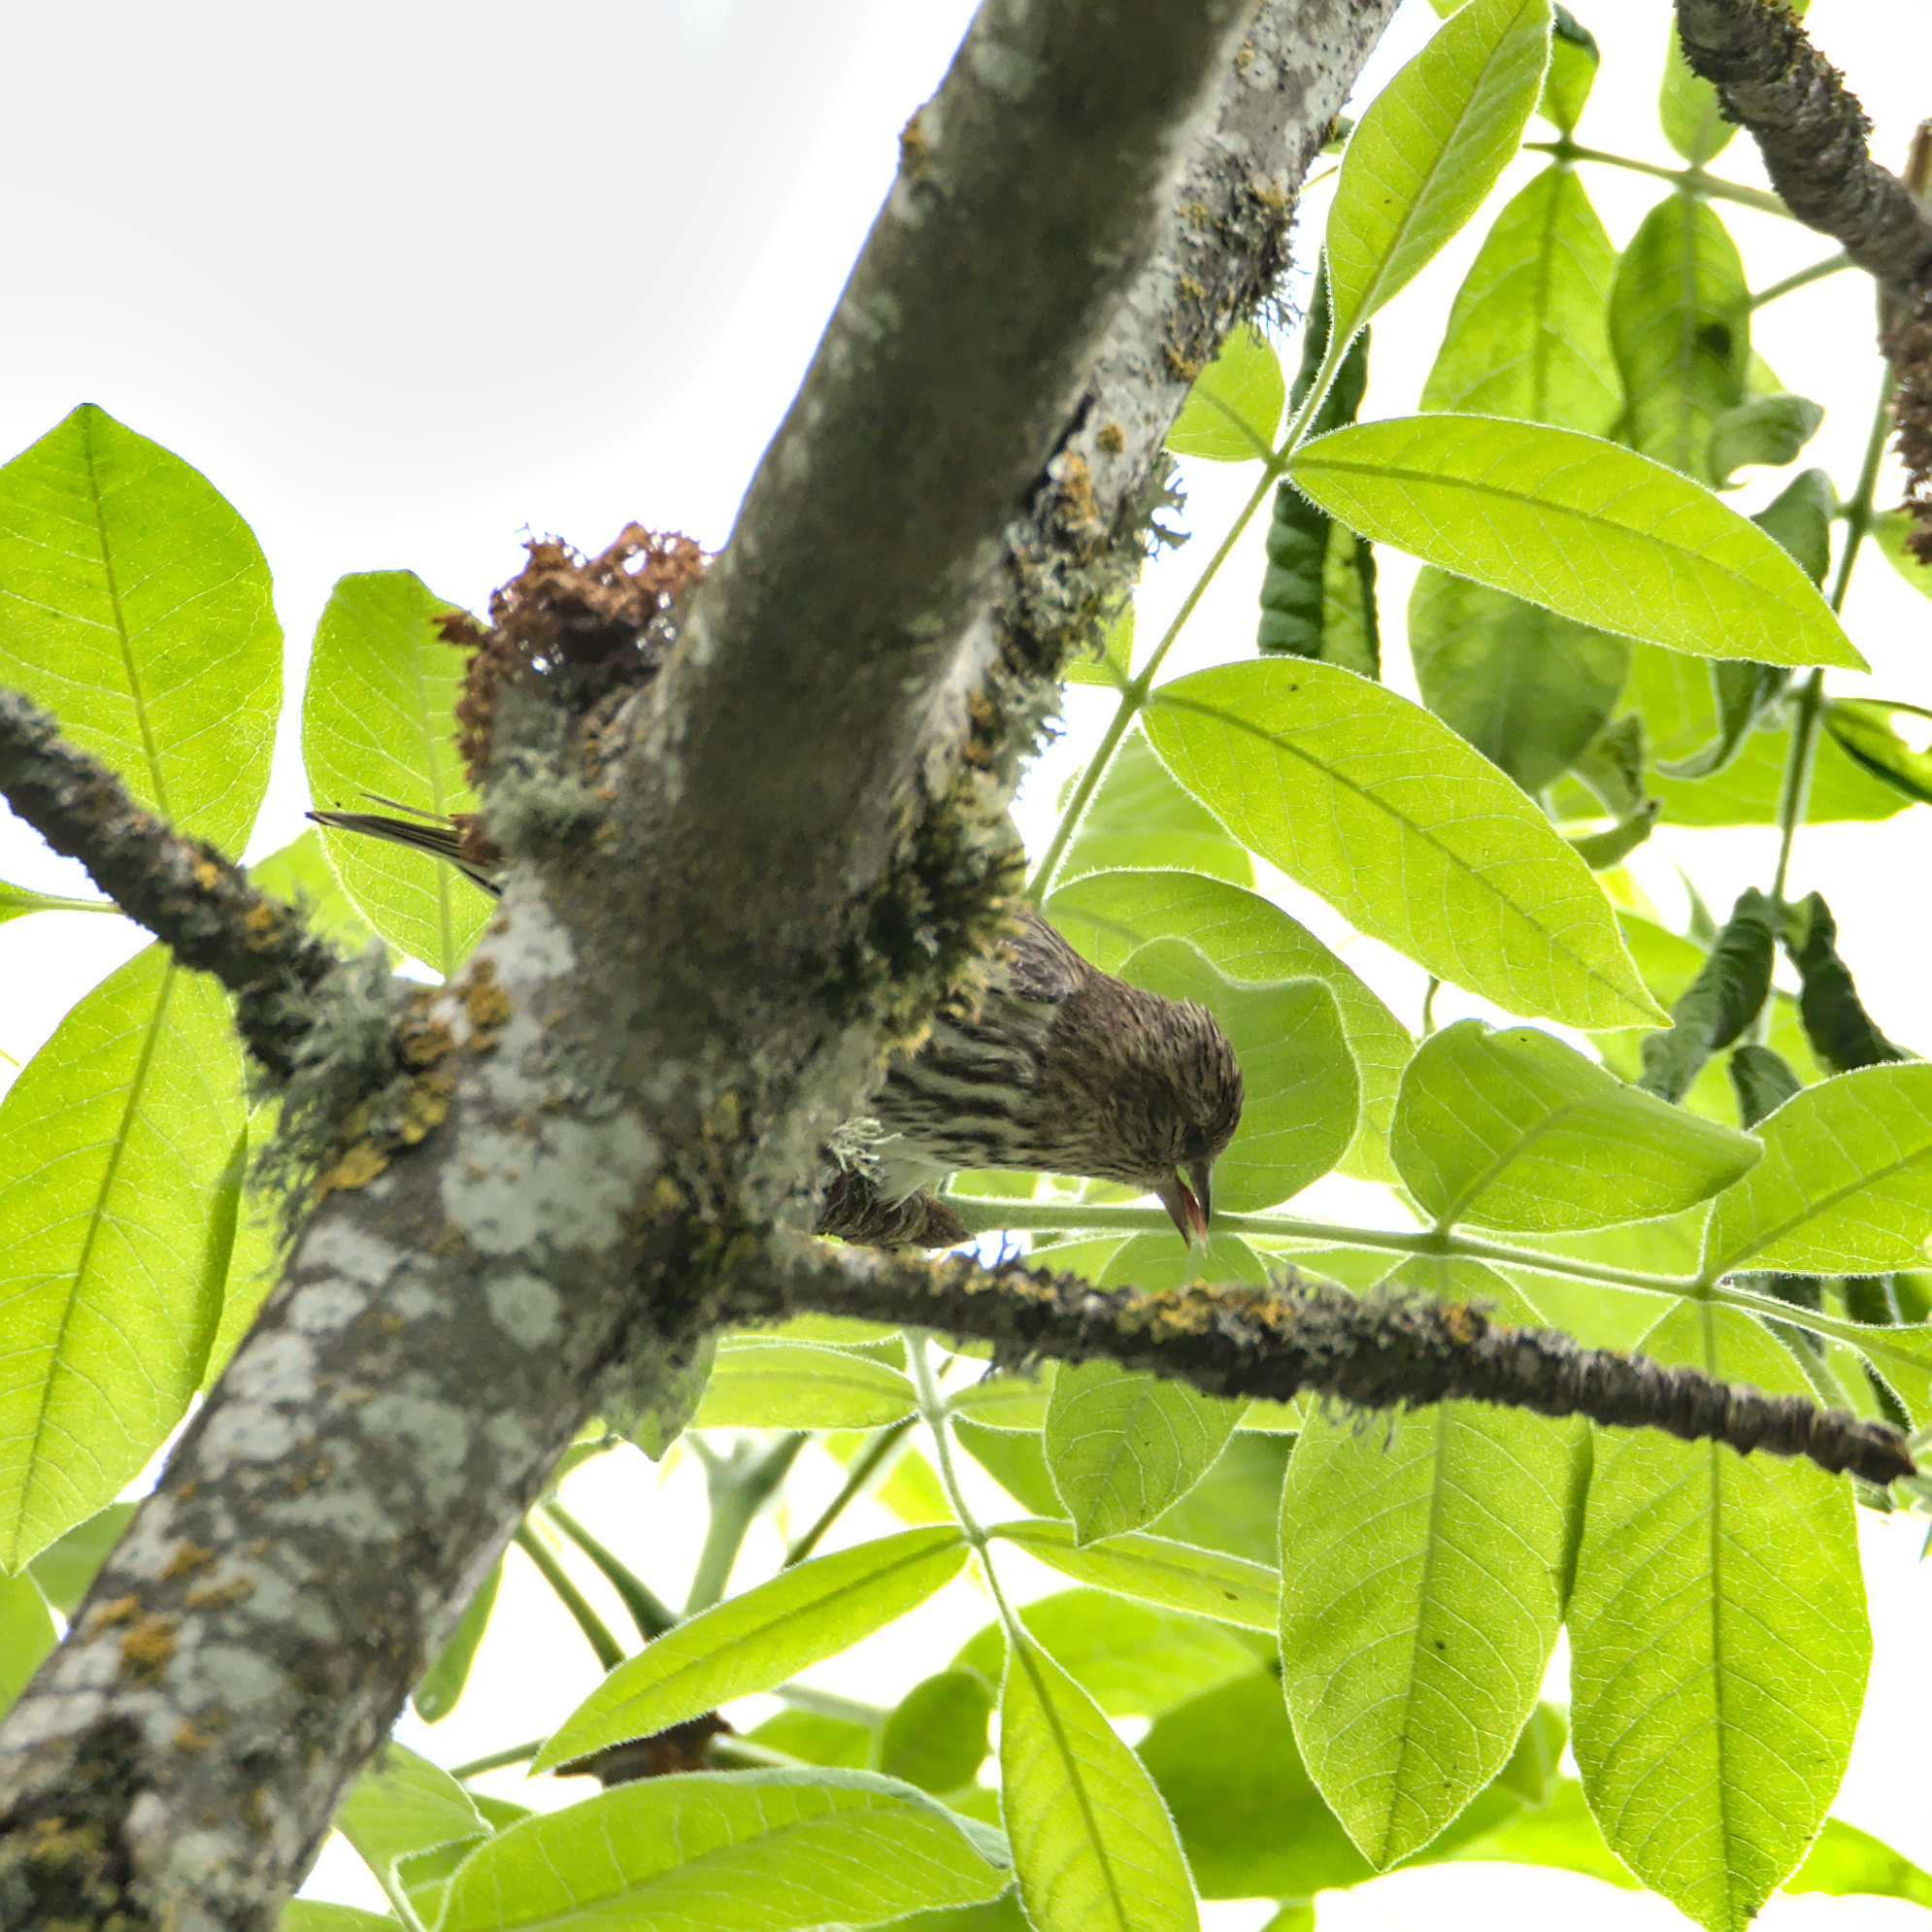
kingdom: Animalia
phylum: Chordata
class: Aves
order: Passeriformes
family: Fringillidae
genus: Spinus
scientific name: Spinus pinus
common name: Pine siskin
